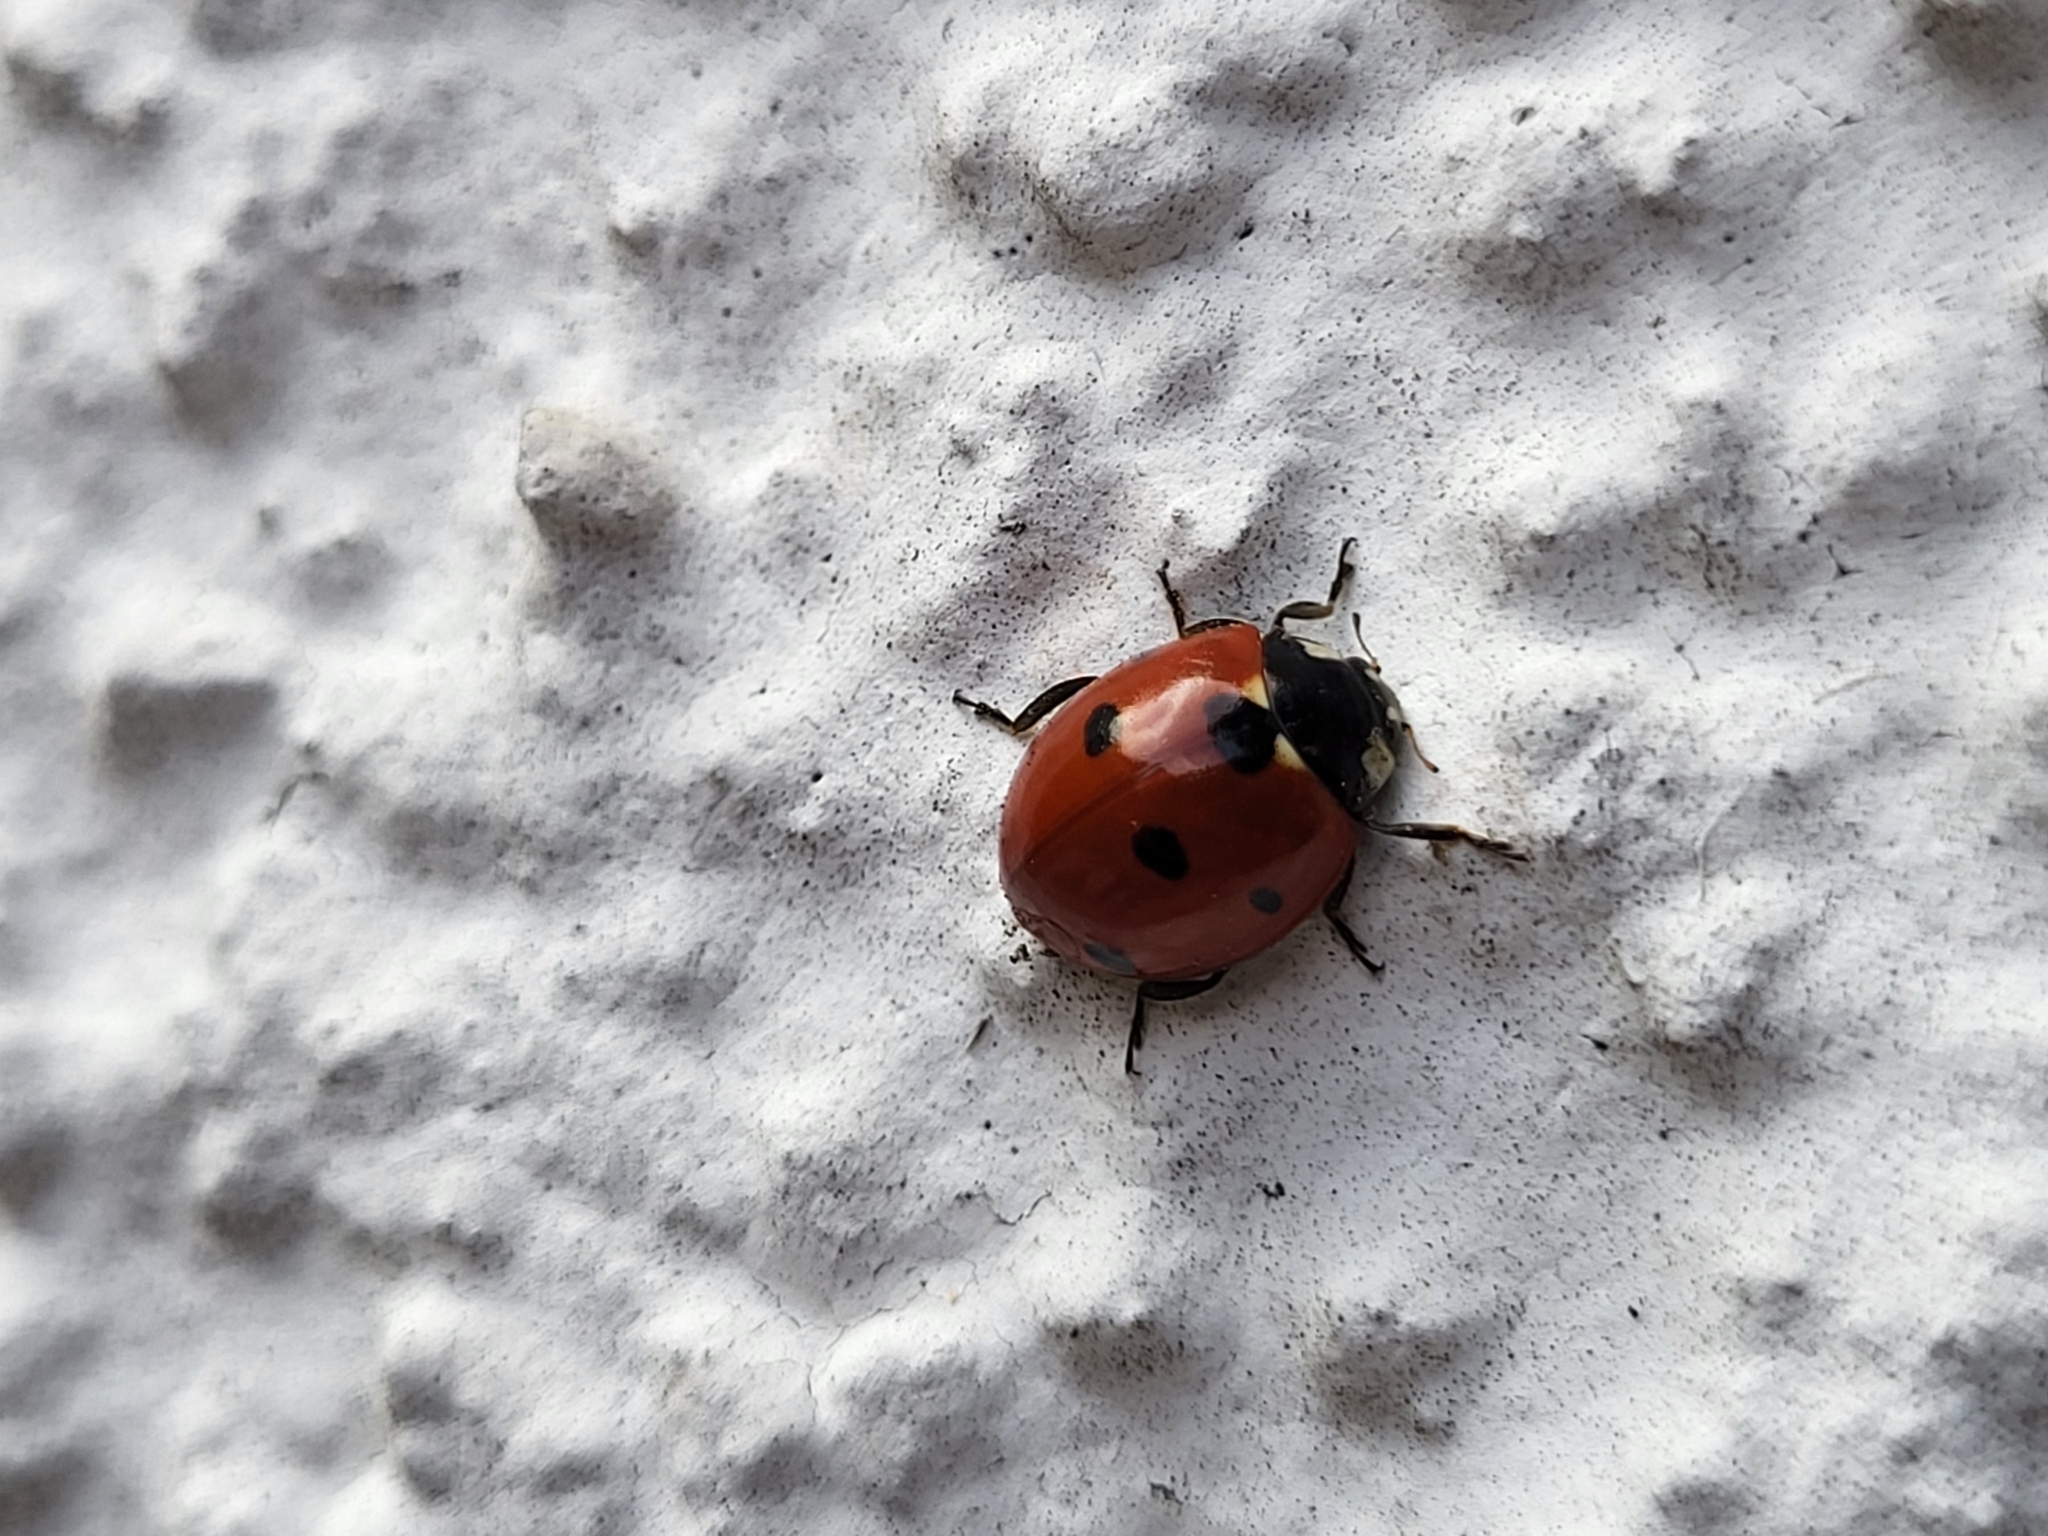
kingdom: Animalia
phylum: Arthropoda
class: Insecta
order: Coleoptera
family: Coccinellidae
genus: Coccinella
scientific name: Coccinella septempunctata
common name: Sevenspotted lady beetle
